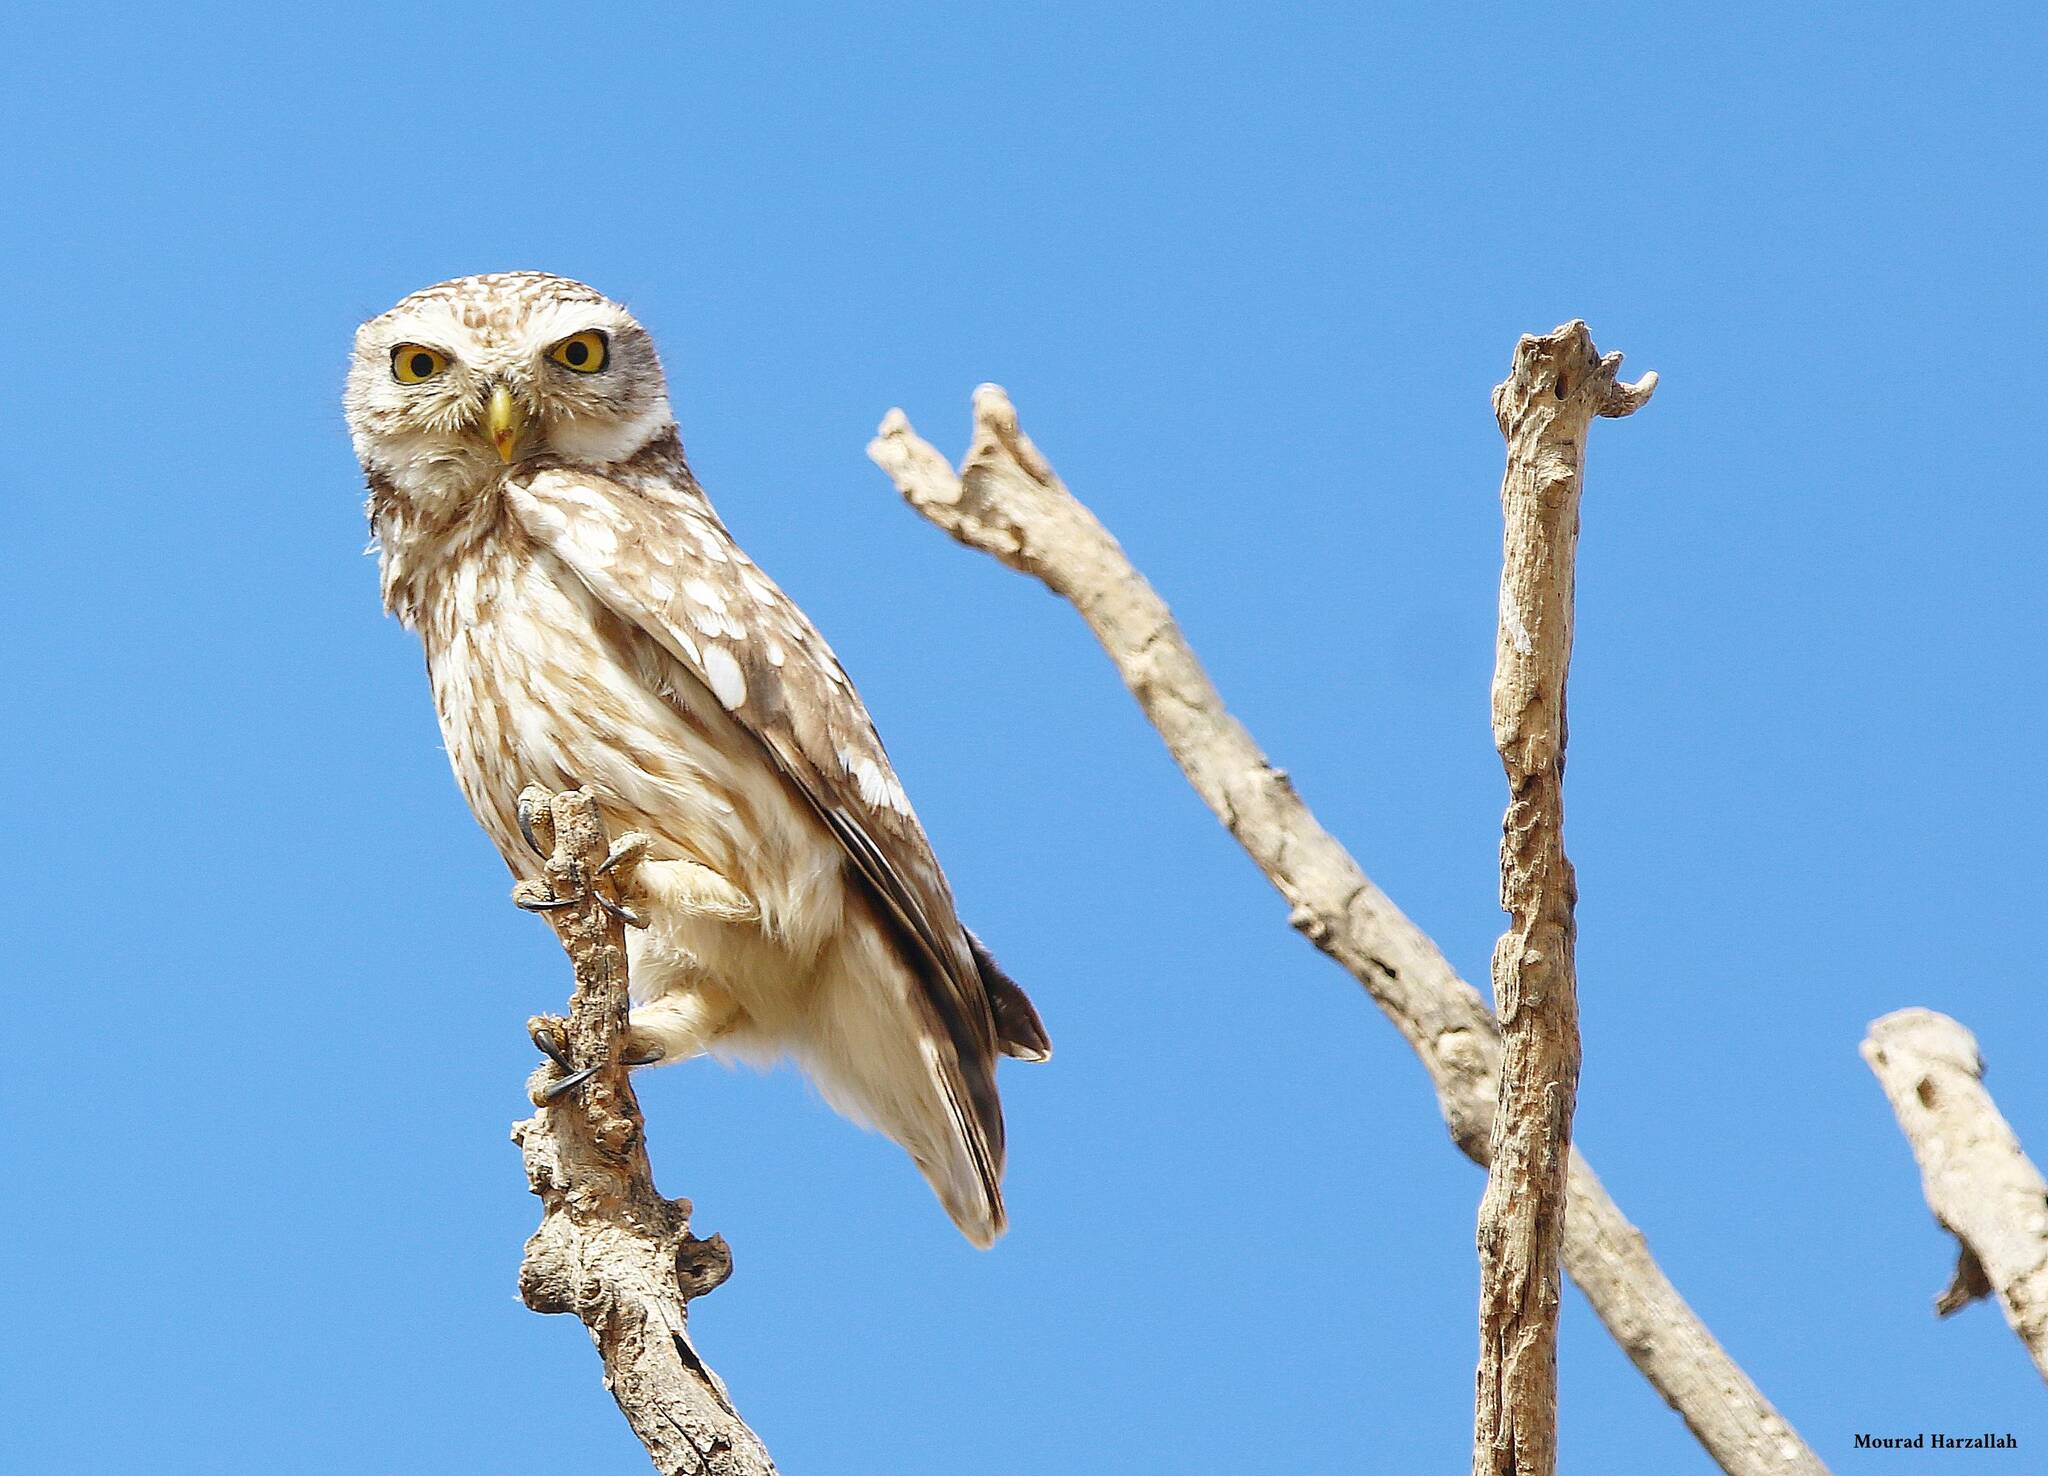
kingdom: Animalia
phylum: Chordata
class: Aves
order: Strigiformes
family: Strigidae
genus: Athene
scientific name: Athene noctua
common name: Little owl
